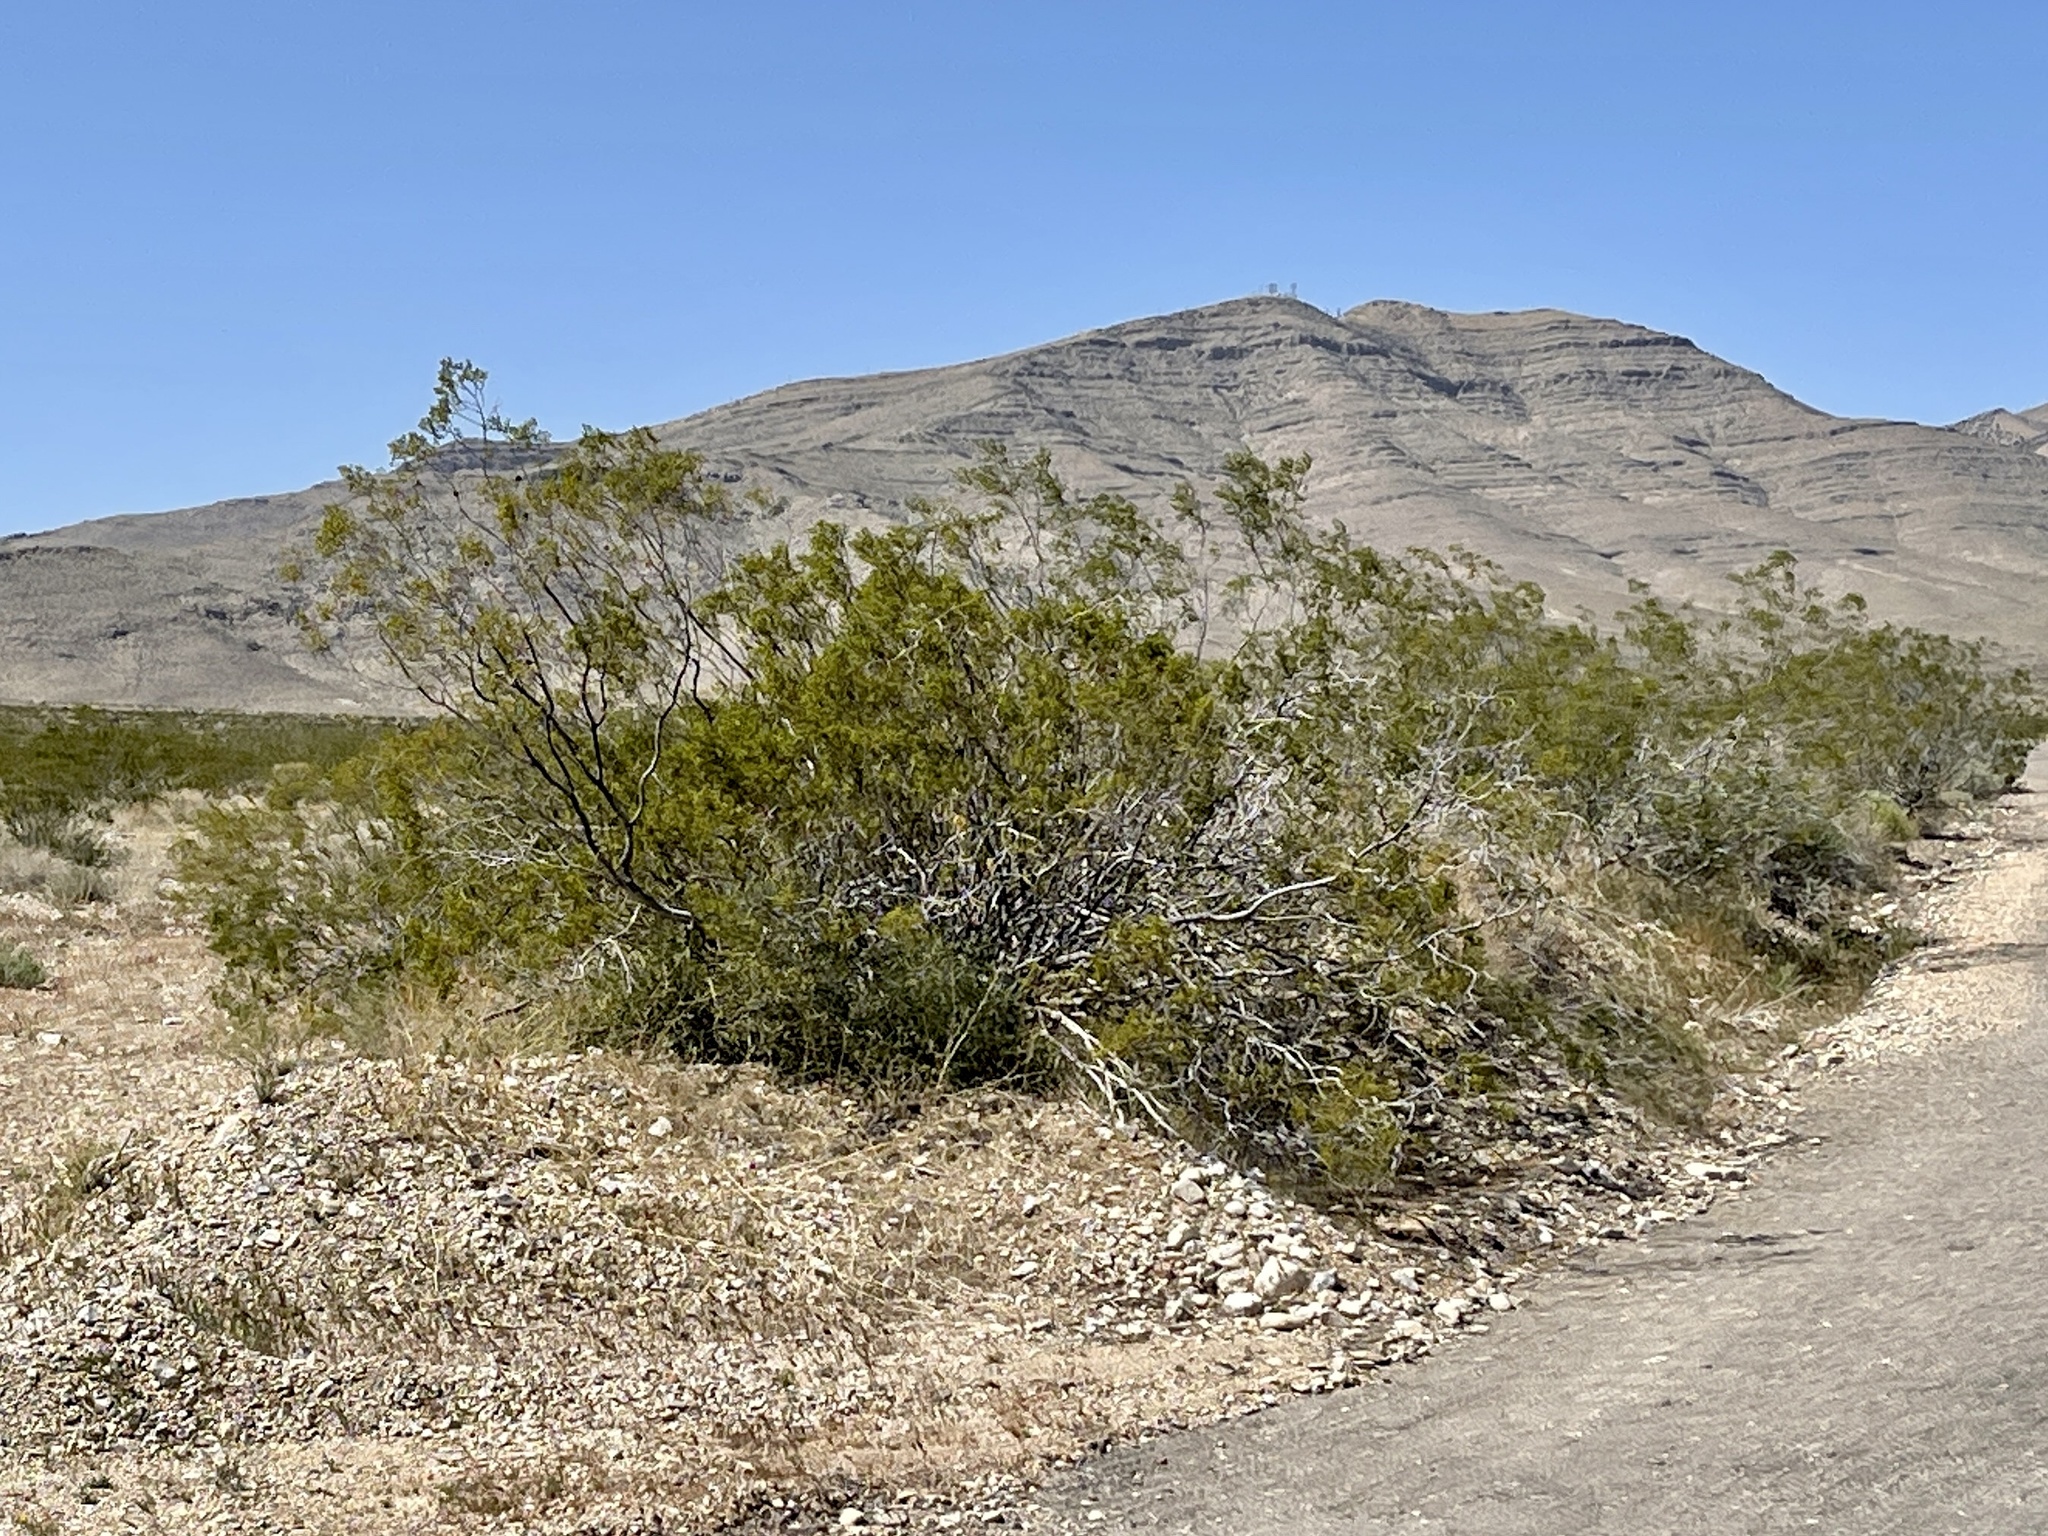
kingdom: Plantae
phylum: Tracheophyta
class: Magnoliopsida
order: Zygophyllales
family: Zygophyllaceae
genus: Larrea
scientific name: Larrea tridentata
